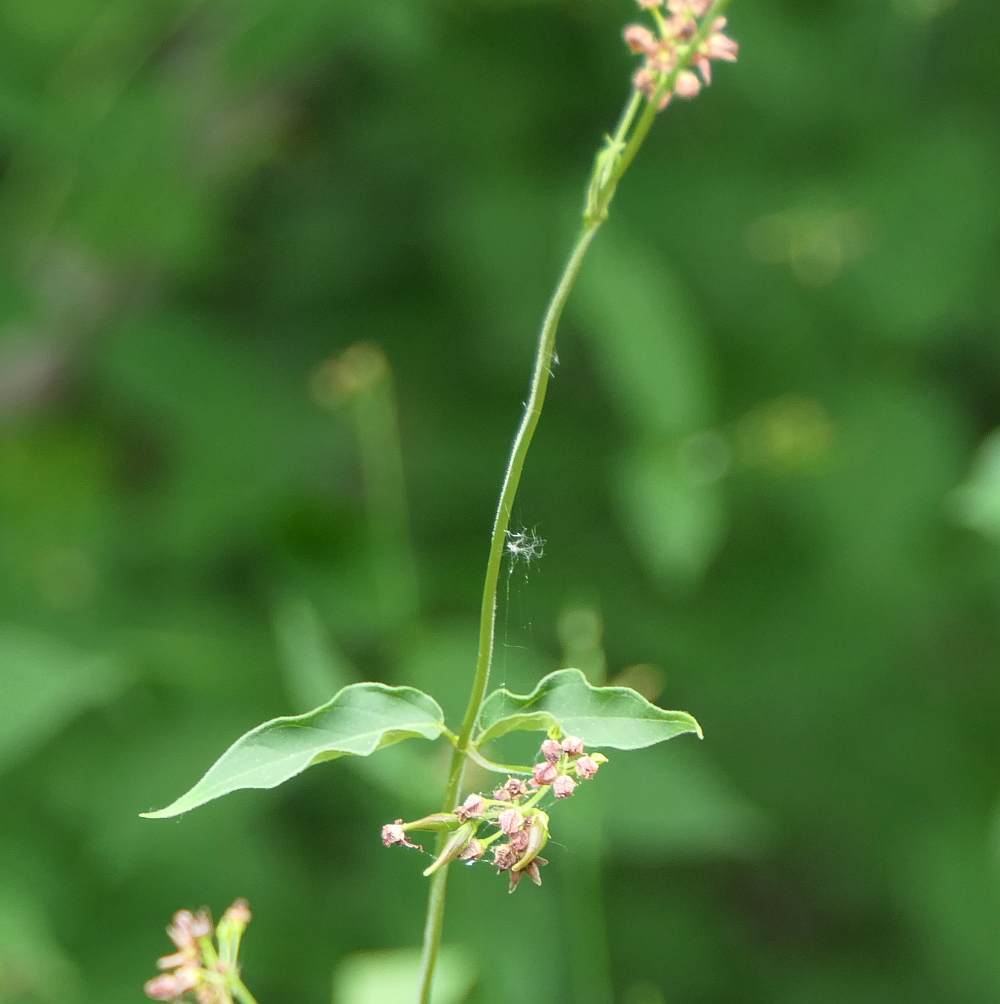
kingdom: Plantae
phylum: Tracheophyta
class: Magnoliopsida
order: Gentianales
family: Apocynaceae
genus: Vincetoxicum
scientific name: Vincetoxicum rossicum
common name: Dog-strangling vine
